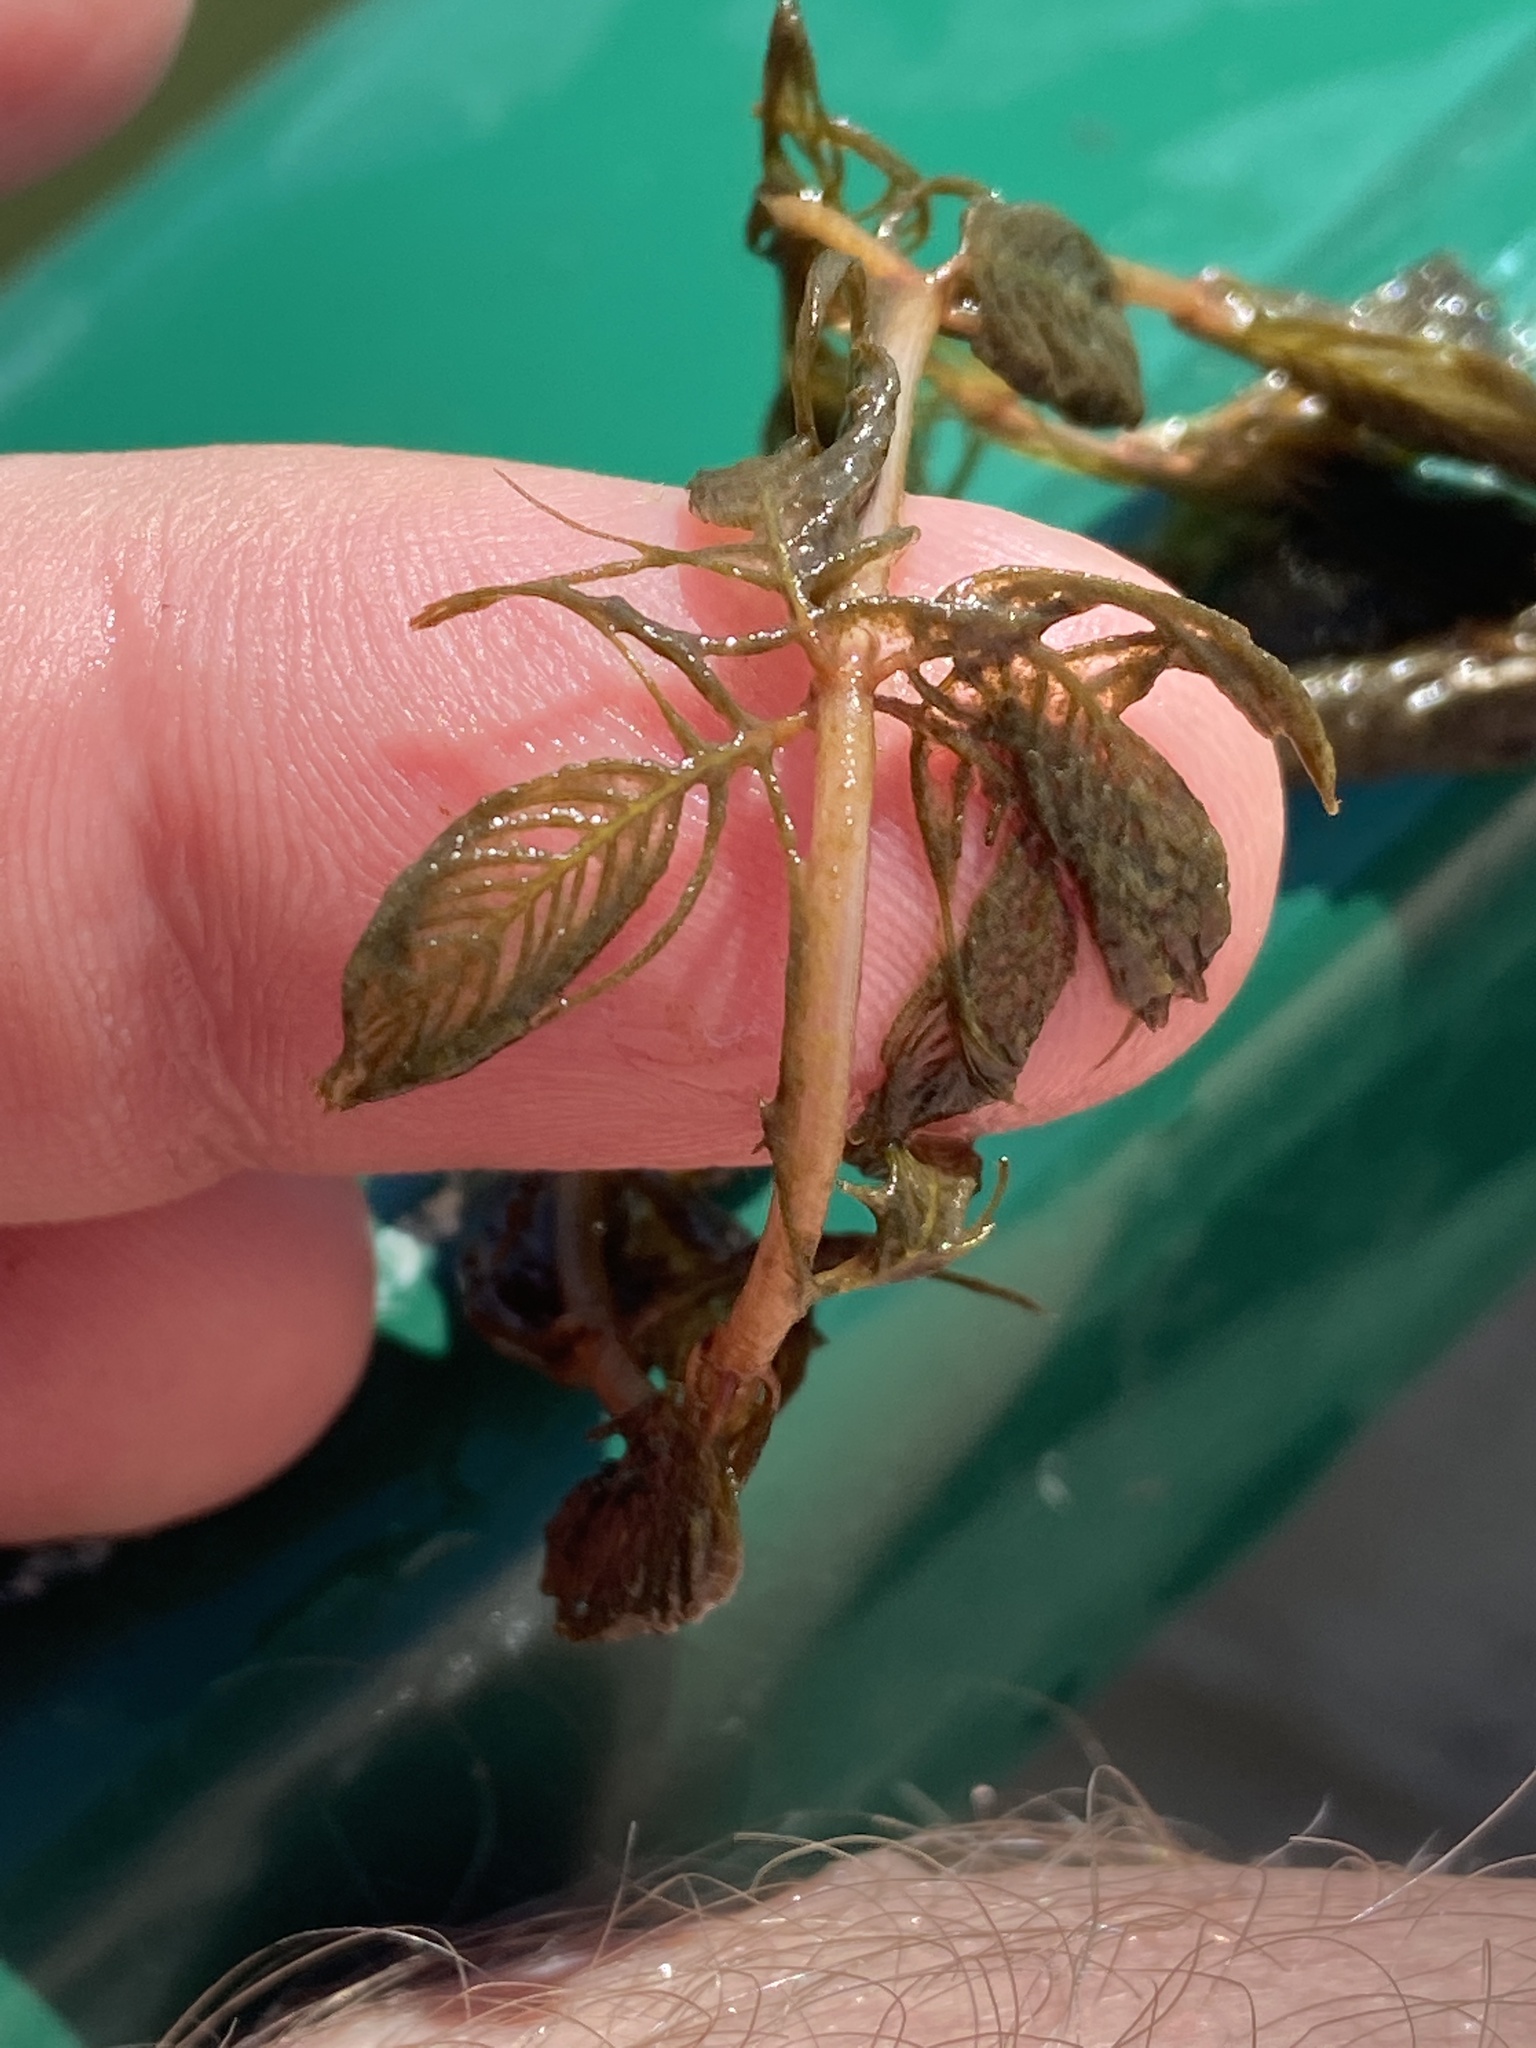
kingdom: Plantae
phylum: Tracheophyta
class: Magnoliopsida
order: Saxifragales
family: Haloragaceae
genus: Myriophyllum
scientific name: Myriophyllum spicatum
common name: Spiked water-milfoil
